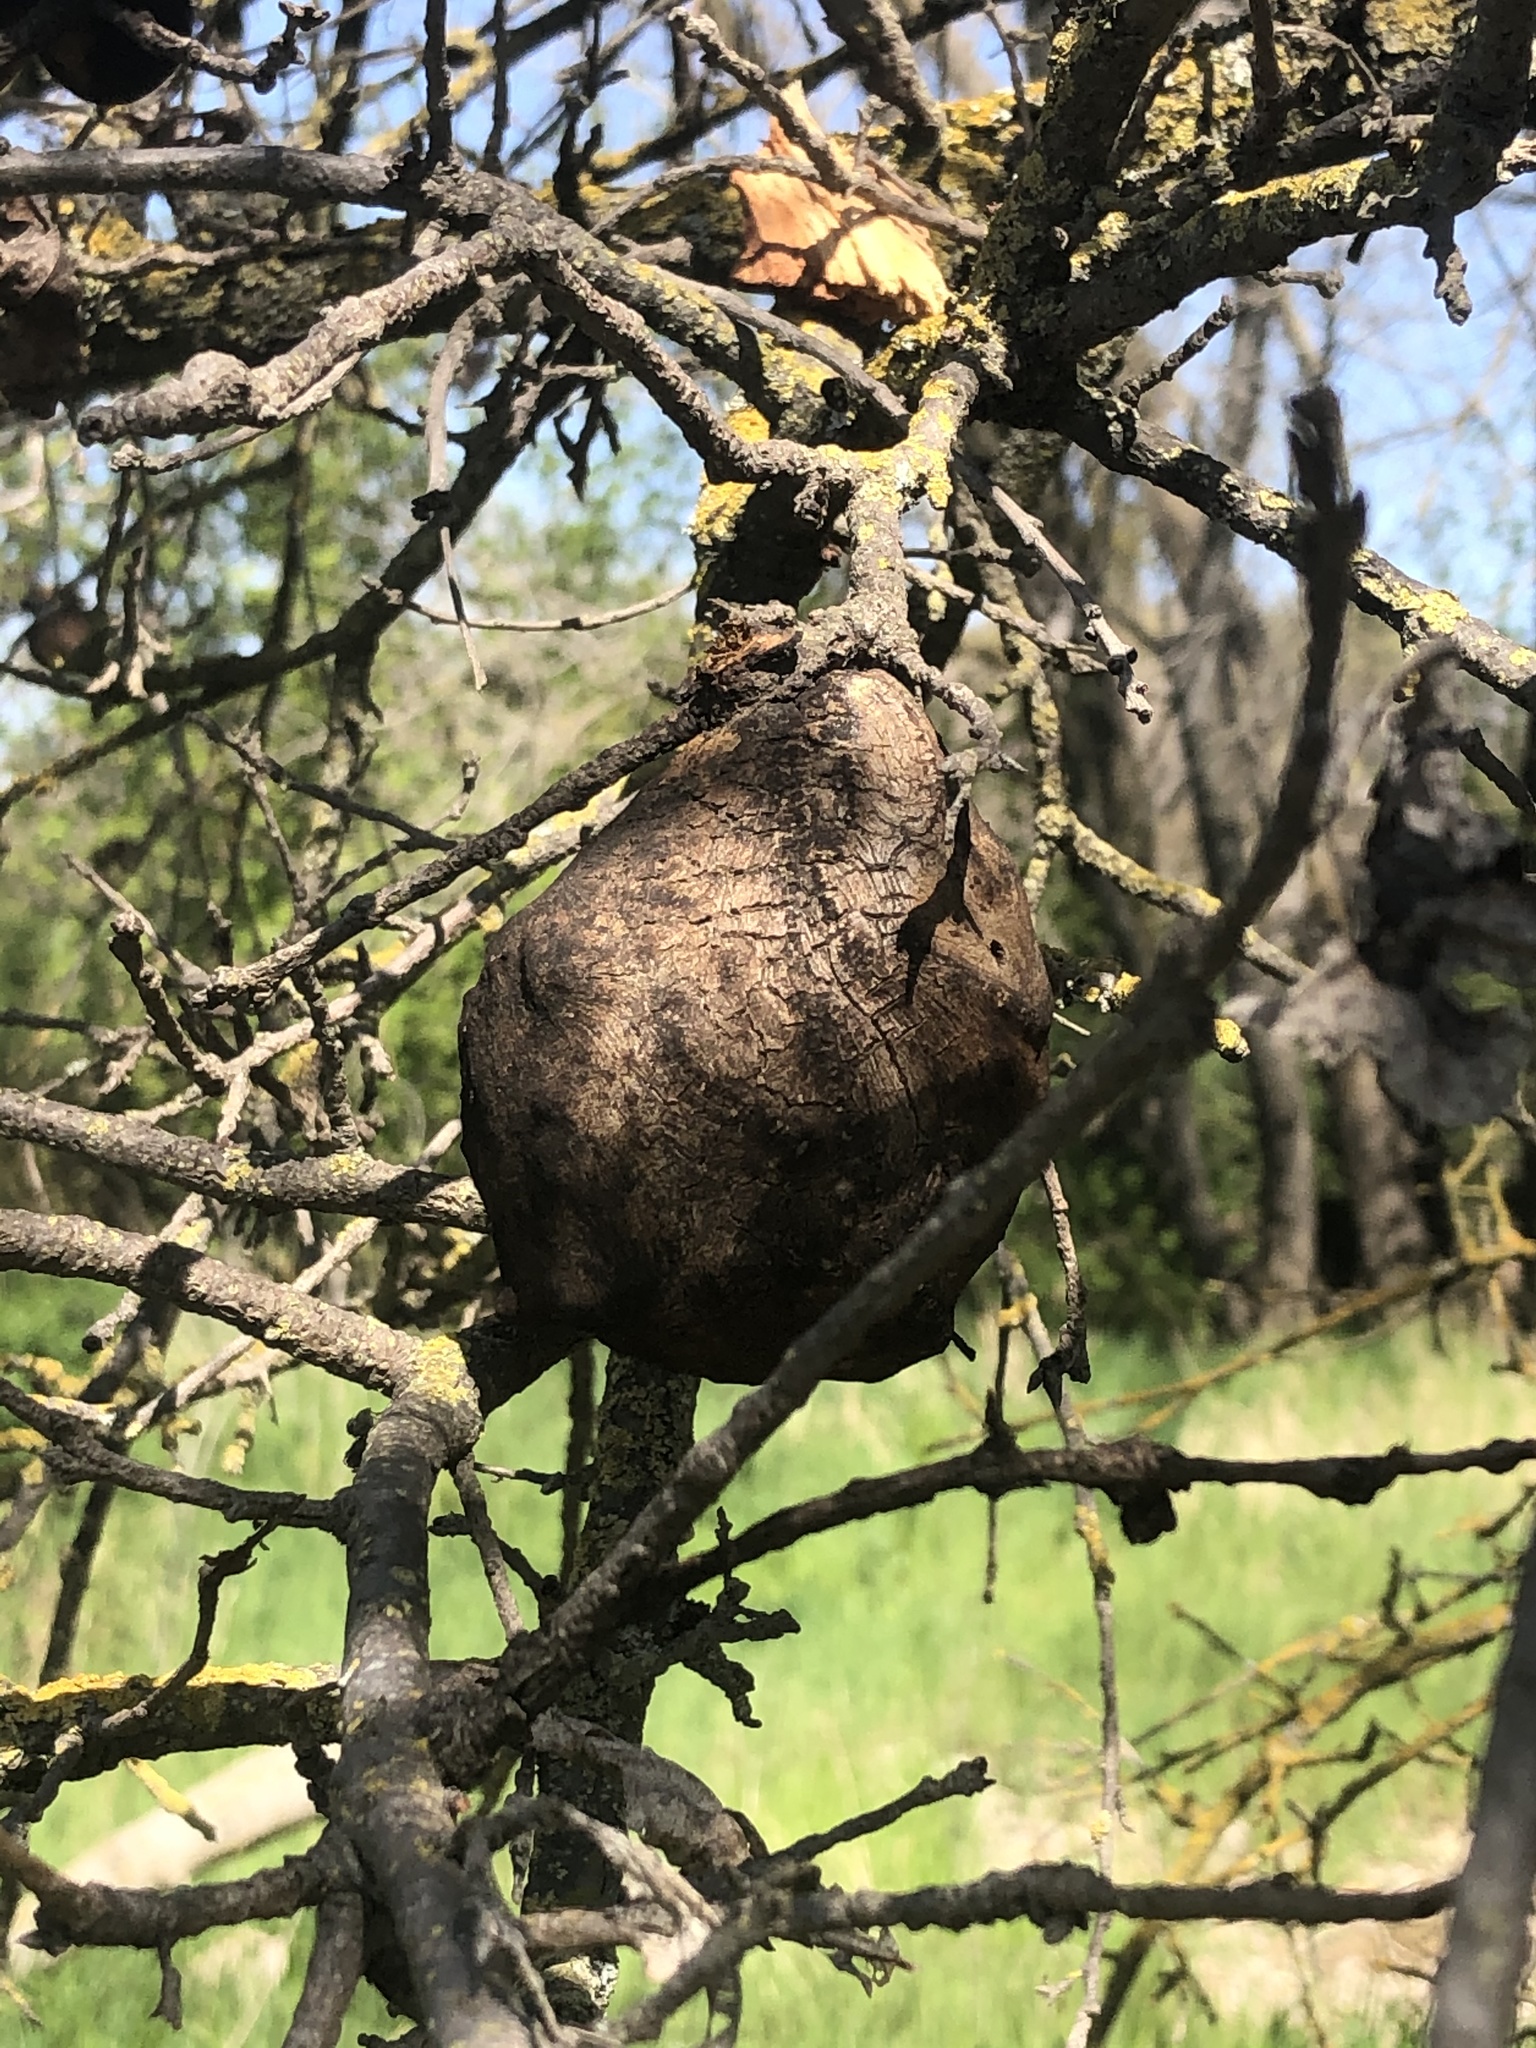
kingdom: Animalia
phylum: Arthropoda
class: Insecta
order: Hymenoptera
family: Cynipidae
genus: Andricus
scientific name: Andricus quercuscalifornicus
